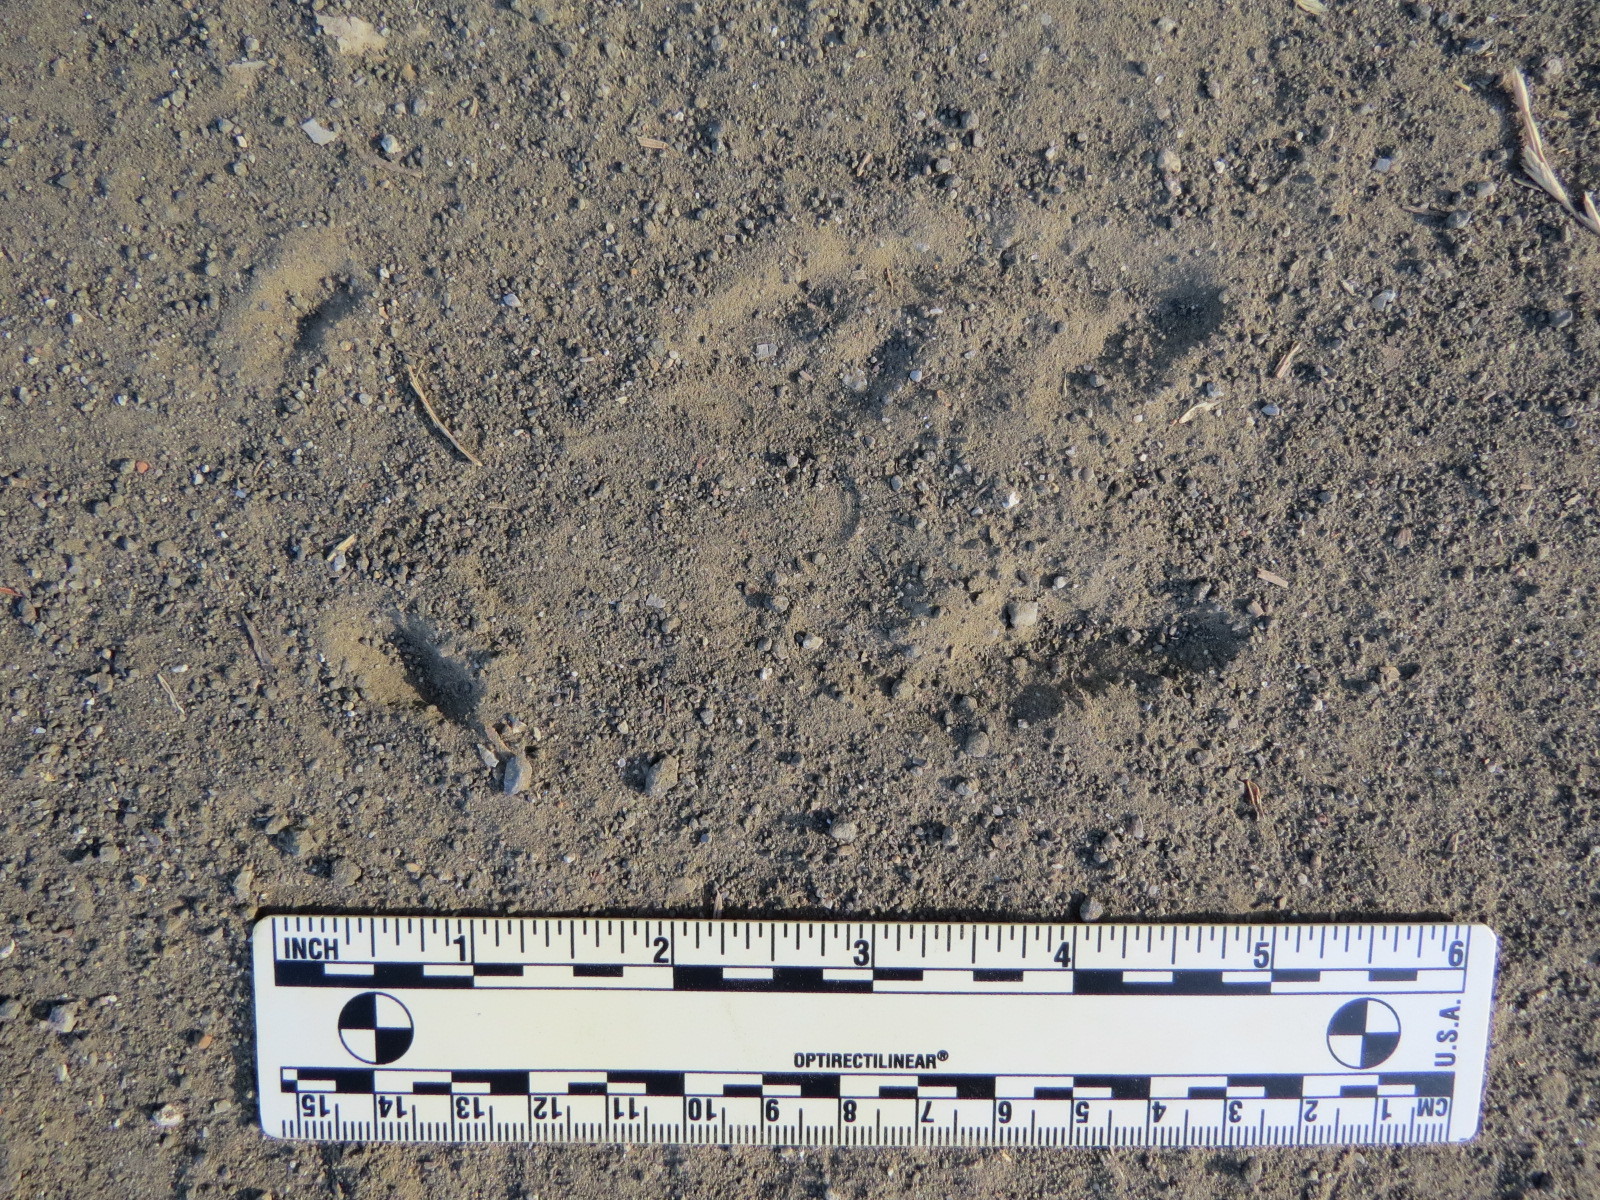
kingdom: Animalia
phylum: Chordata
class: Mammalia
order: Artiodactyla
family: Cervidae
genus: Odocoileus
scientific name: Odocoileus hemionus
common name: Mule deer
